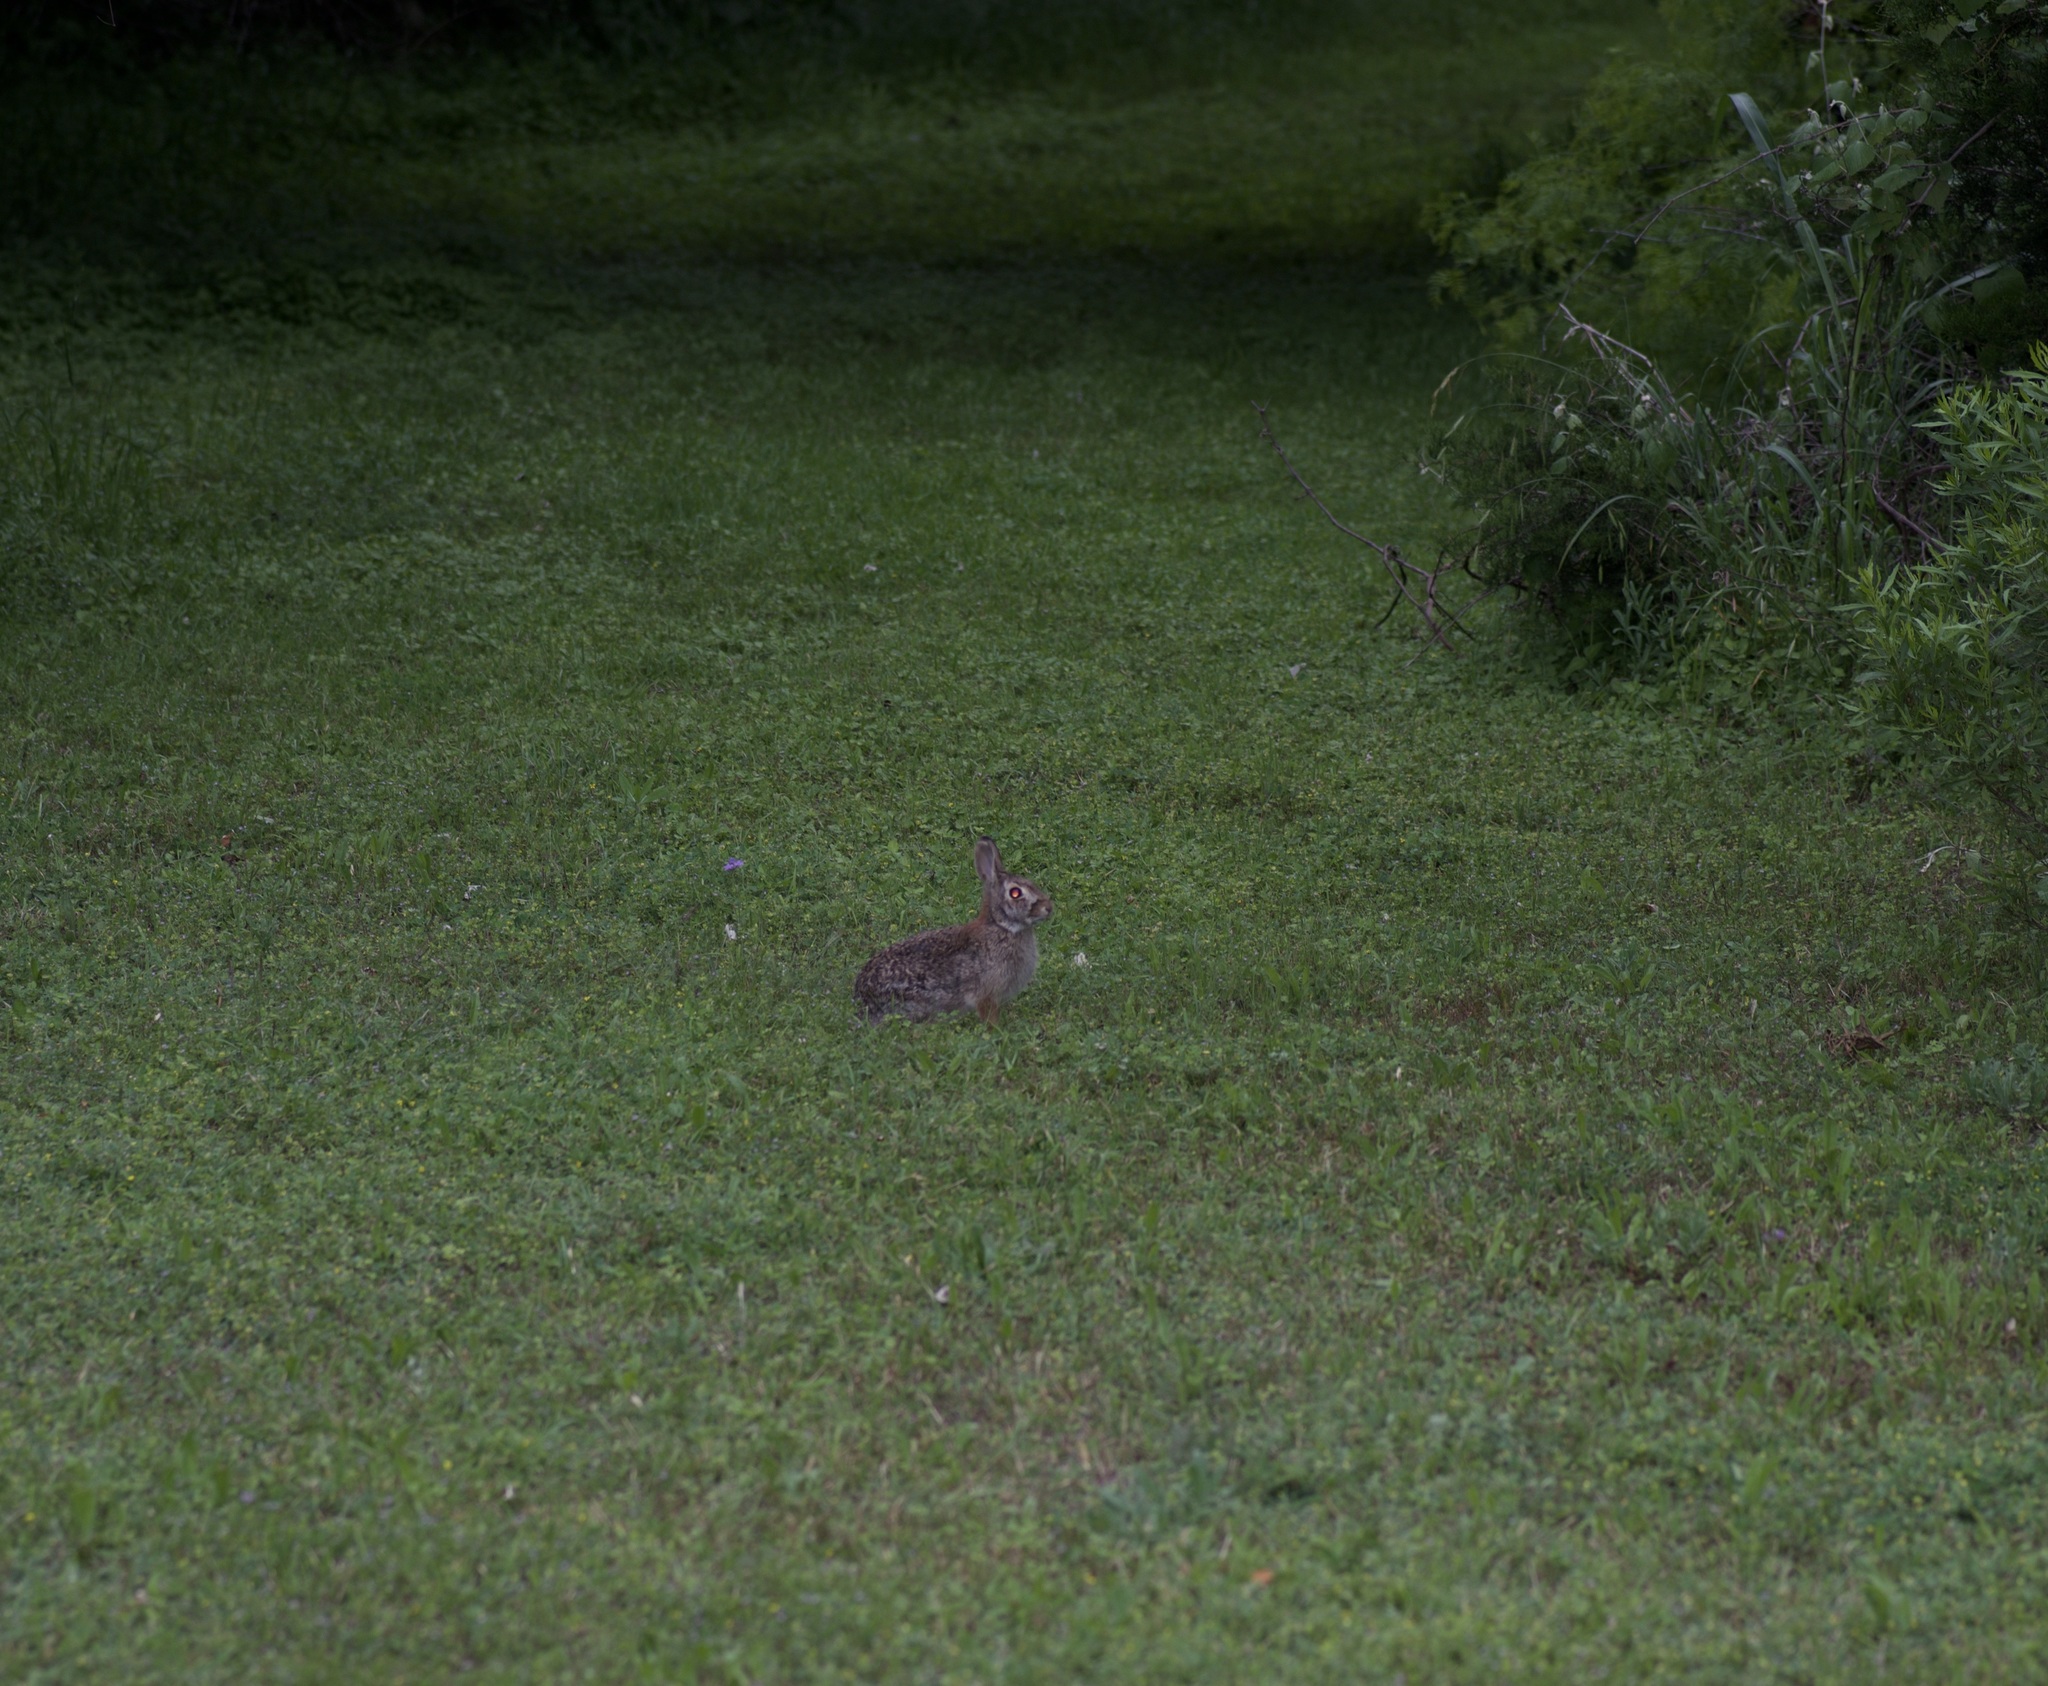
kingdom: Animalia
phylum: Chordata
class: Mammalia
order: Lagomorpha
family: Leporidae
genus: Sylvilagus
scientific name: Sylvilagus floridanus
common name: Eastern cottontail
